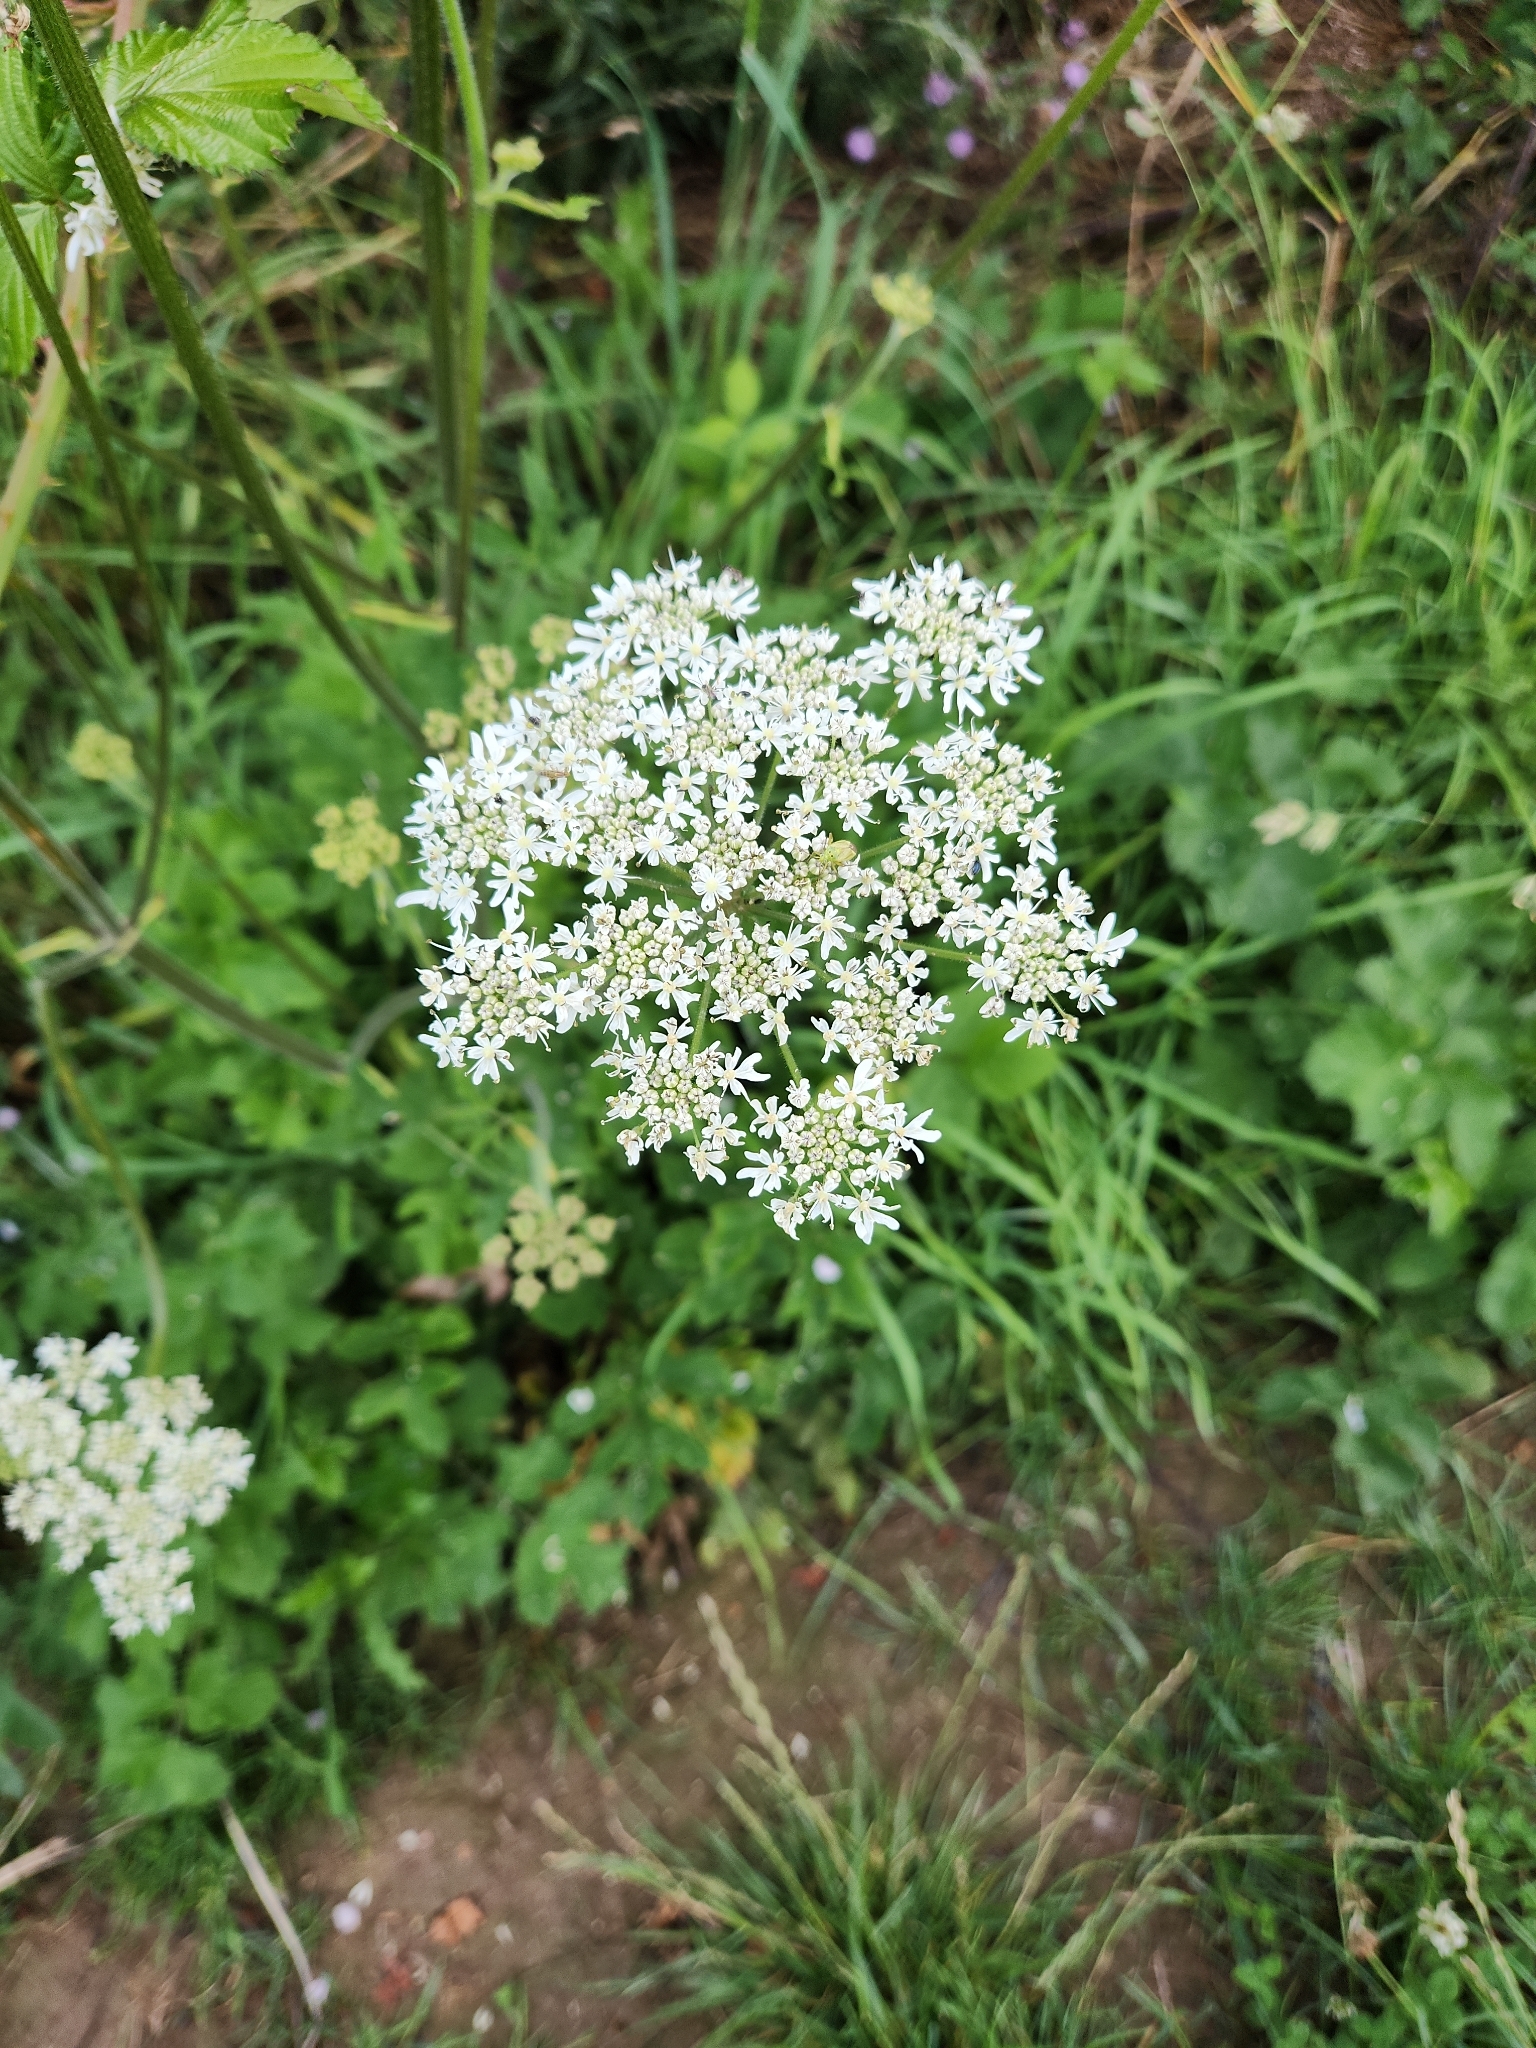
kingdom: Plantae
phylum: Tracheophyta
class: Magnoliopsida
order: Apiales
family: Apiaceae
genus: Heracleum
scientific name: Heracleum sphondylium
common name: Hogweed
